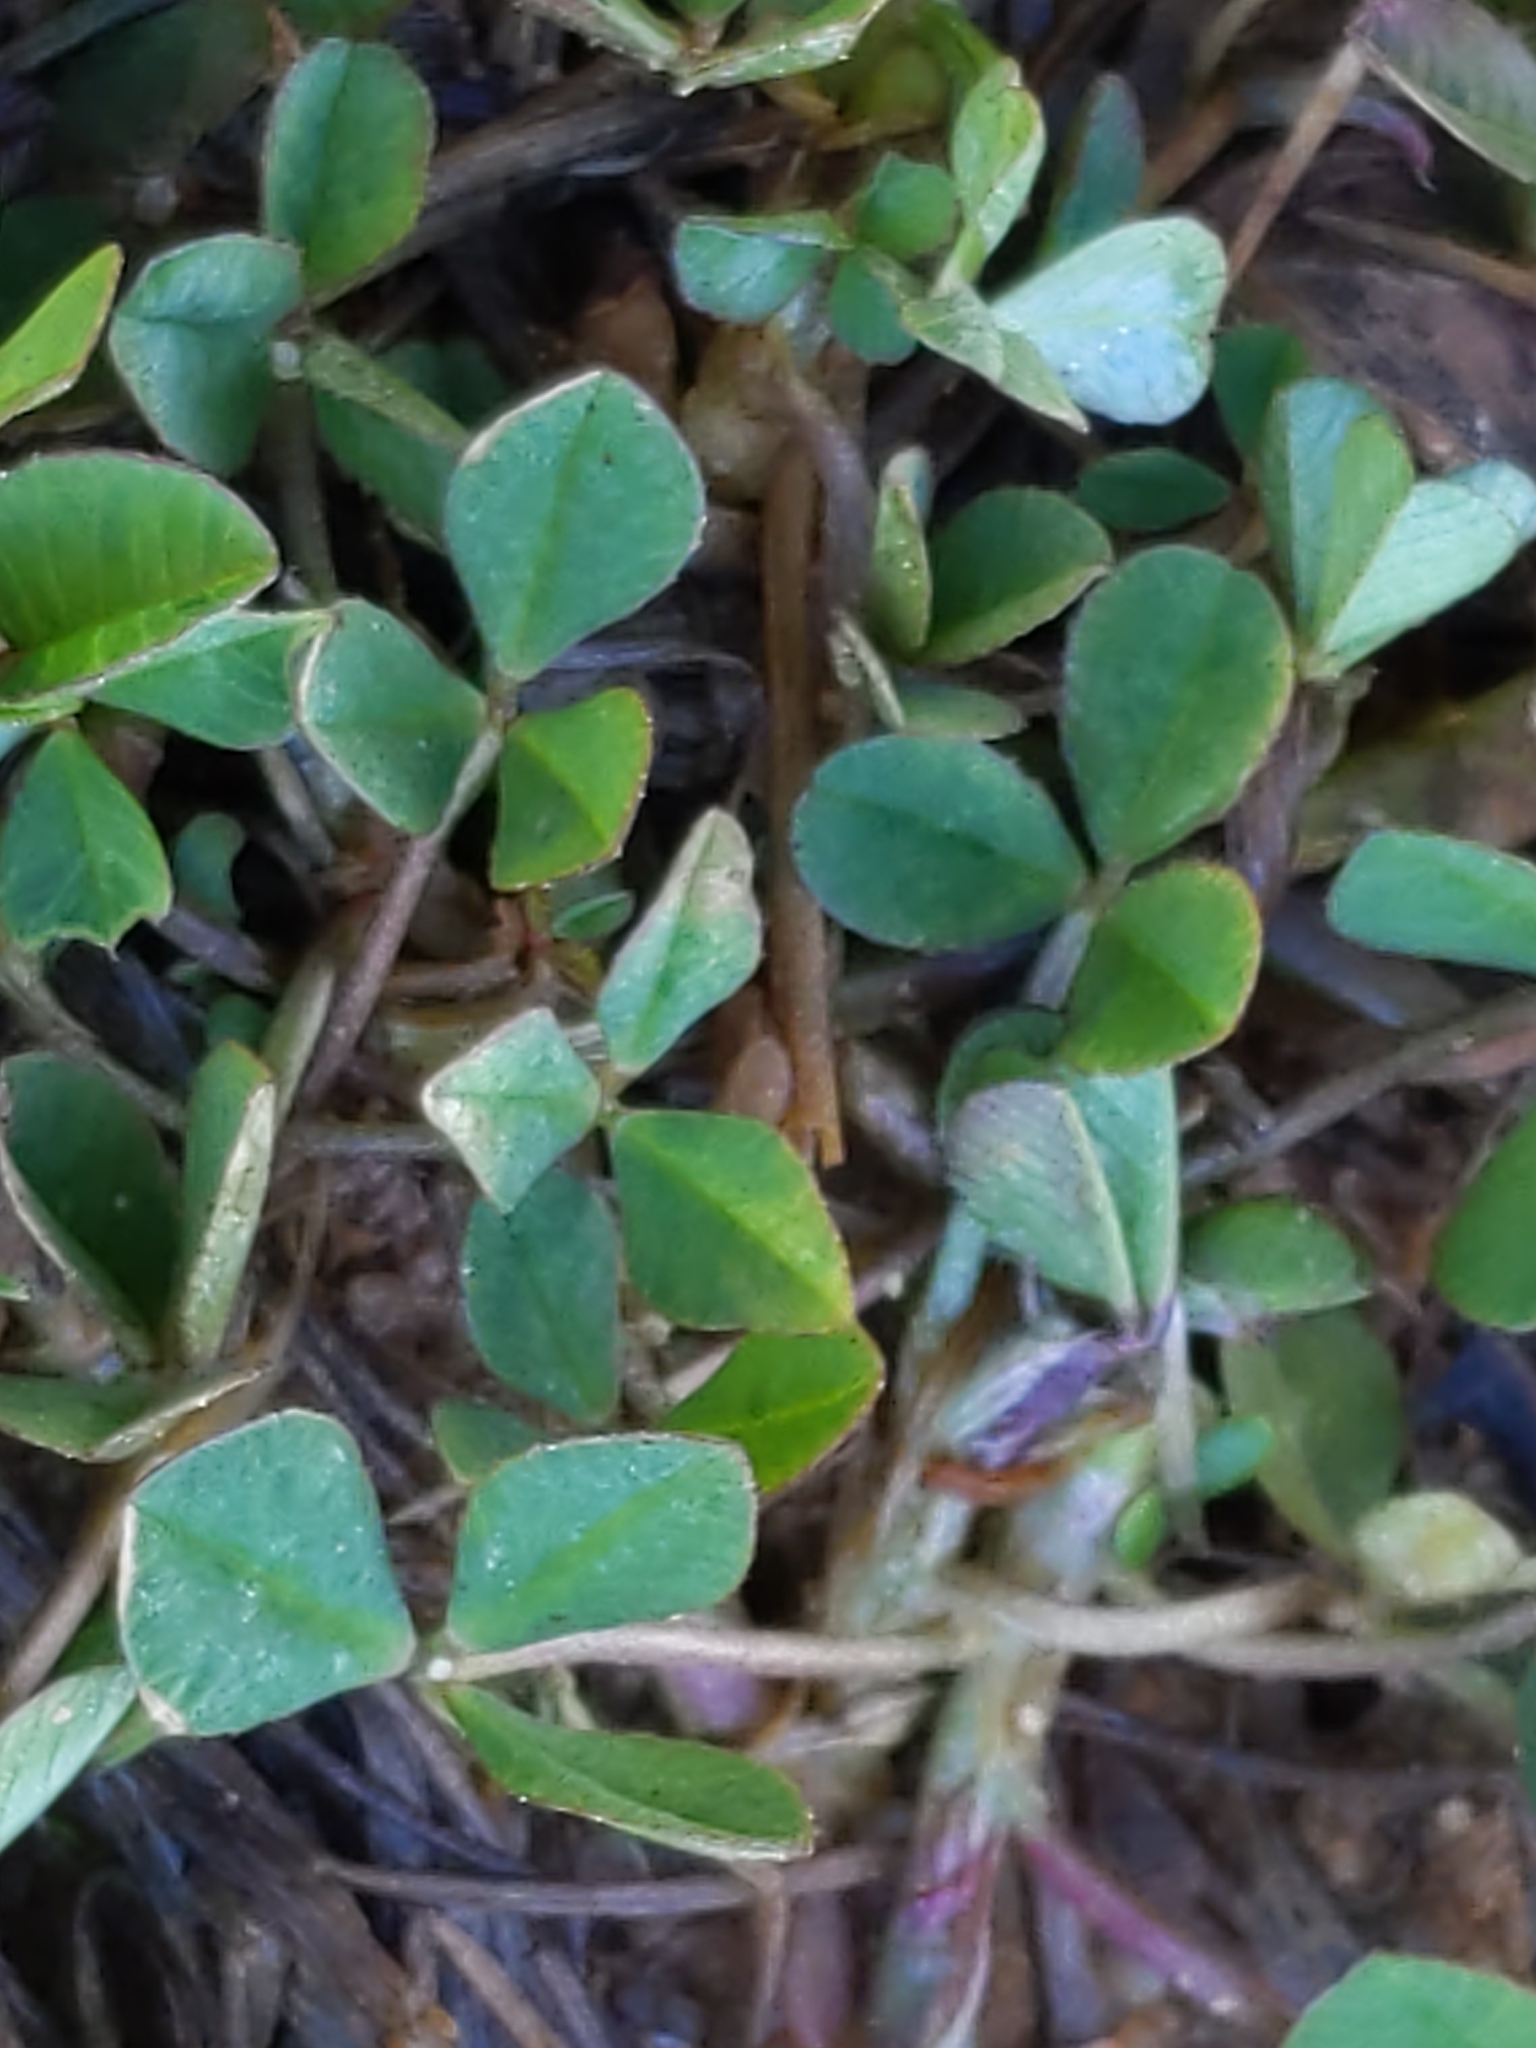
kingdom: Plantae
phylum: Tracheophyta
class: Magnoliopsida
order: Fabales
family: Fabaceae
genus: Trifolium
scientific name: Trifolium repens
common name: White clover
